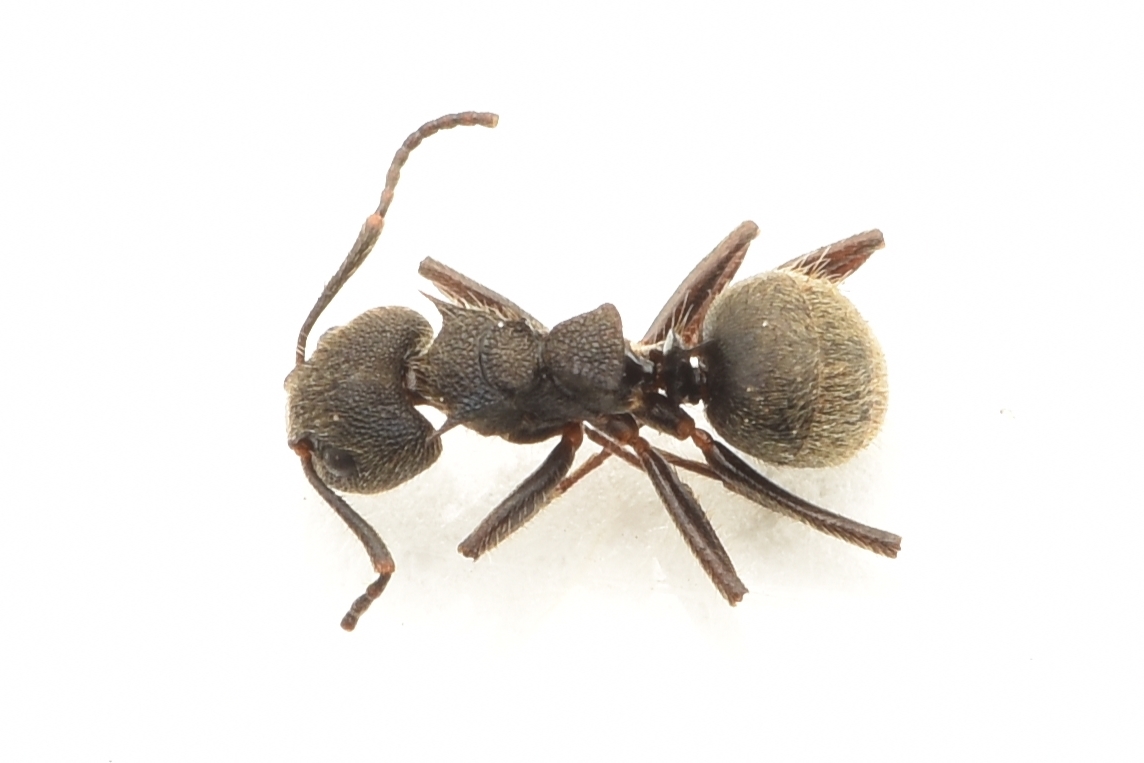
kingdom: Animalia
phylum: Arthropoda
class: Insecta
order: Hymenoptera
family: Formicidae
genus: Dolichoderus
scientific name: Dolichoderus bispinosus
